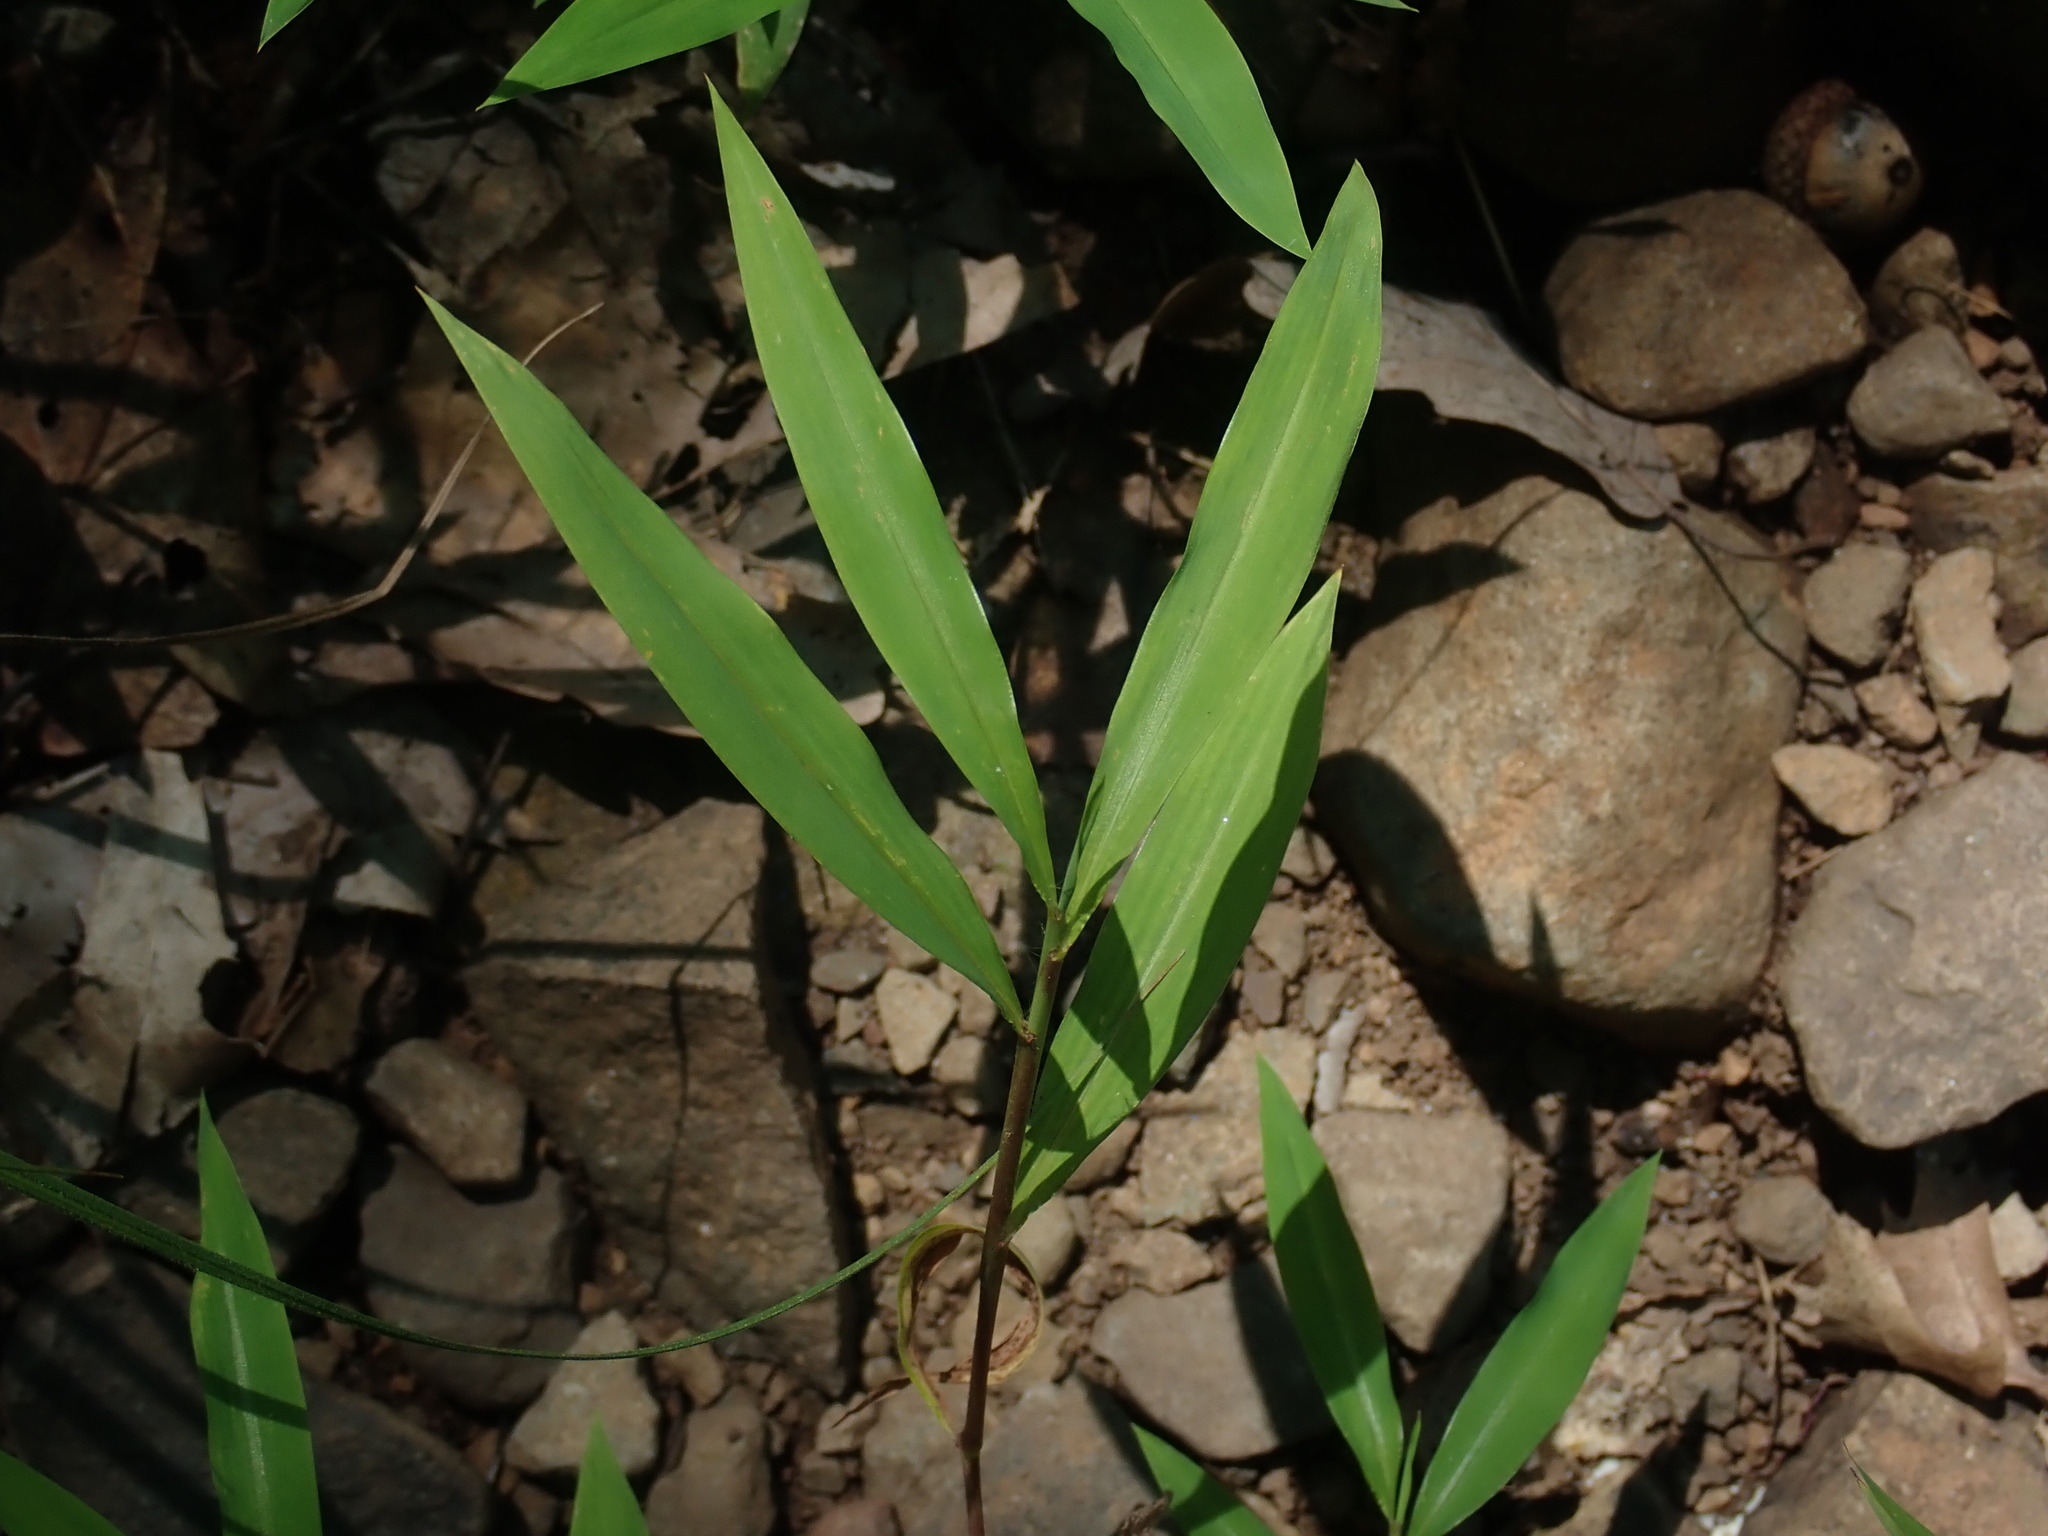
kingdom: Plantae
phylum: Tracheophyta
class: Liliopsida
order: Poales
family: Poaceae
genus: Microstegium
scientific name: Microstegium vimineum
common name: Japanese stiltgrass
